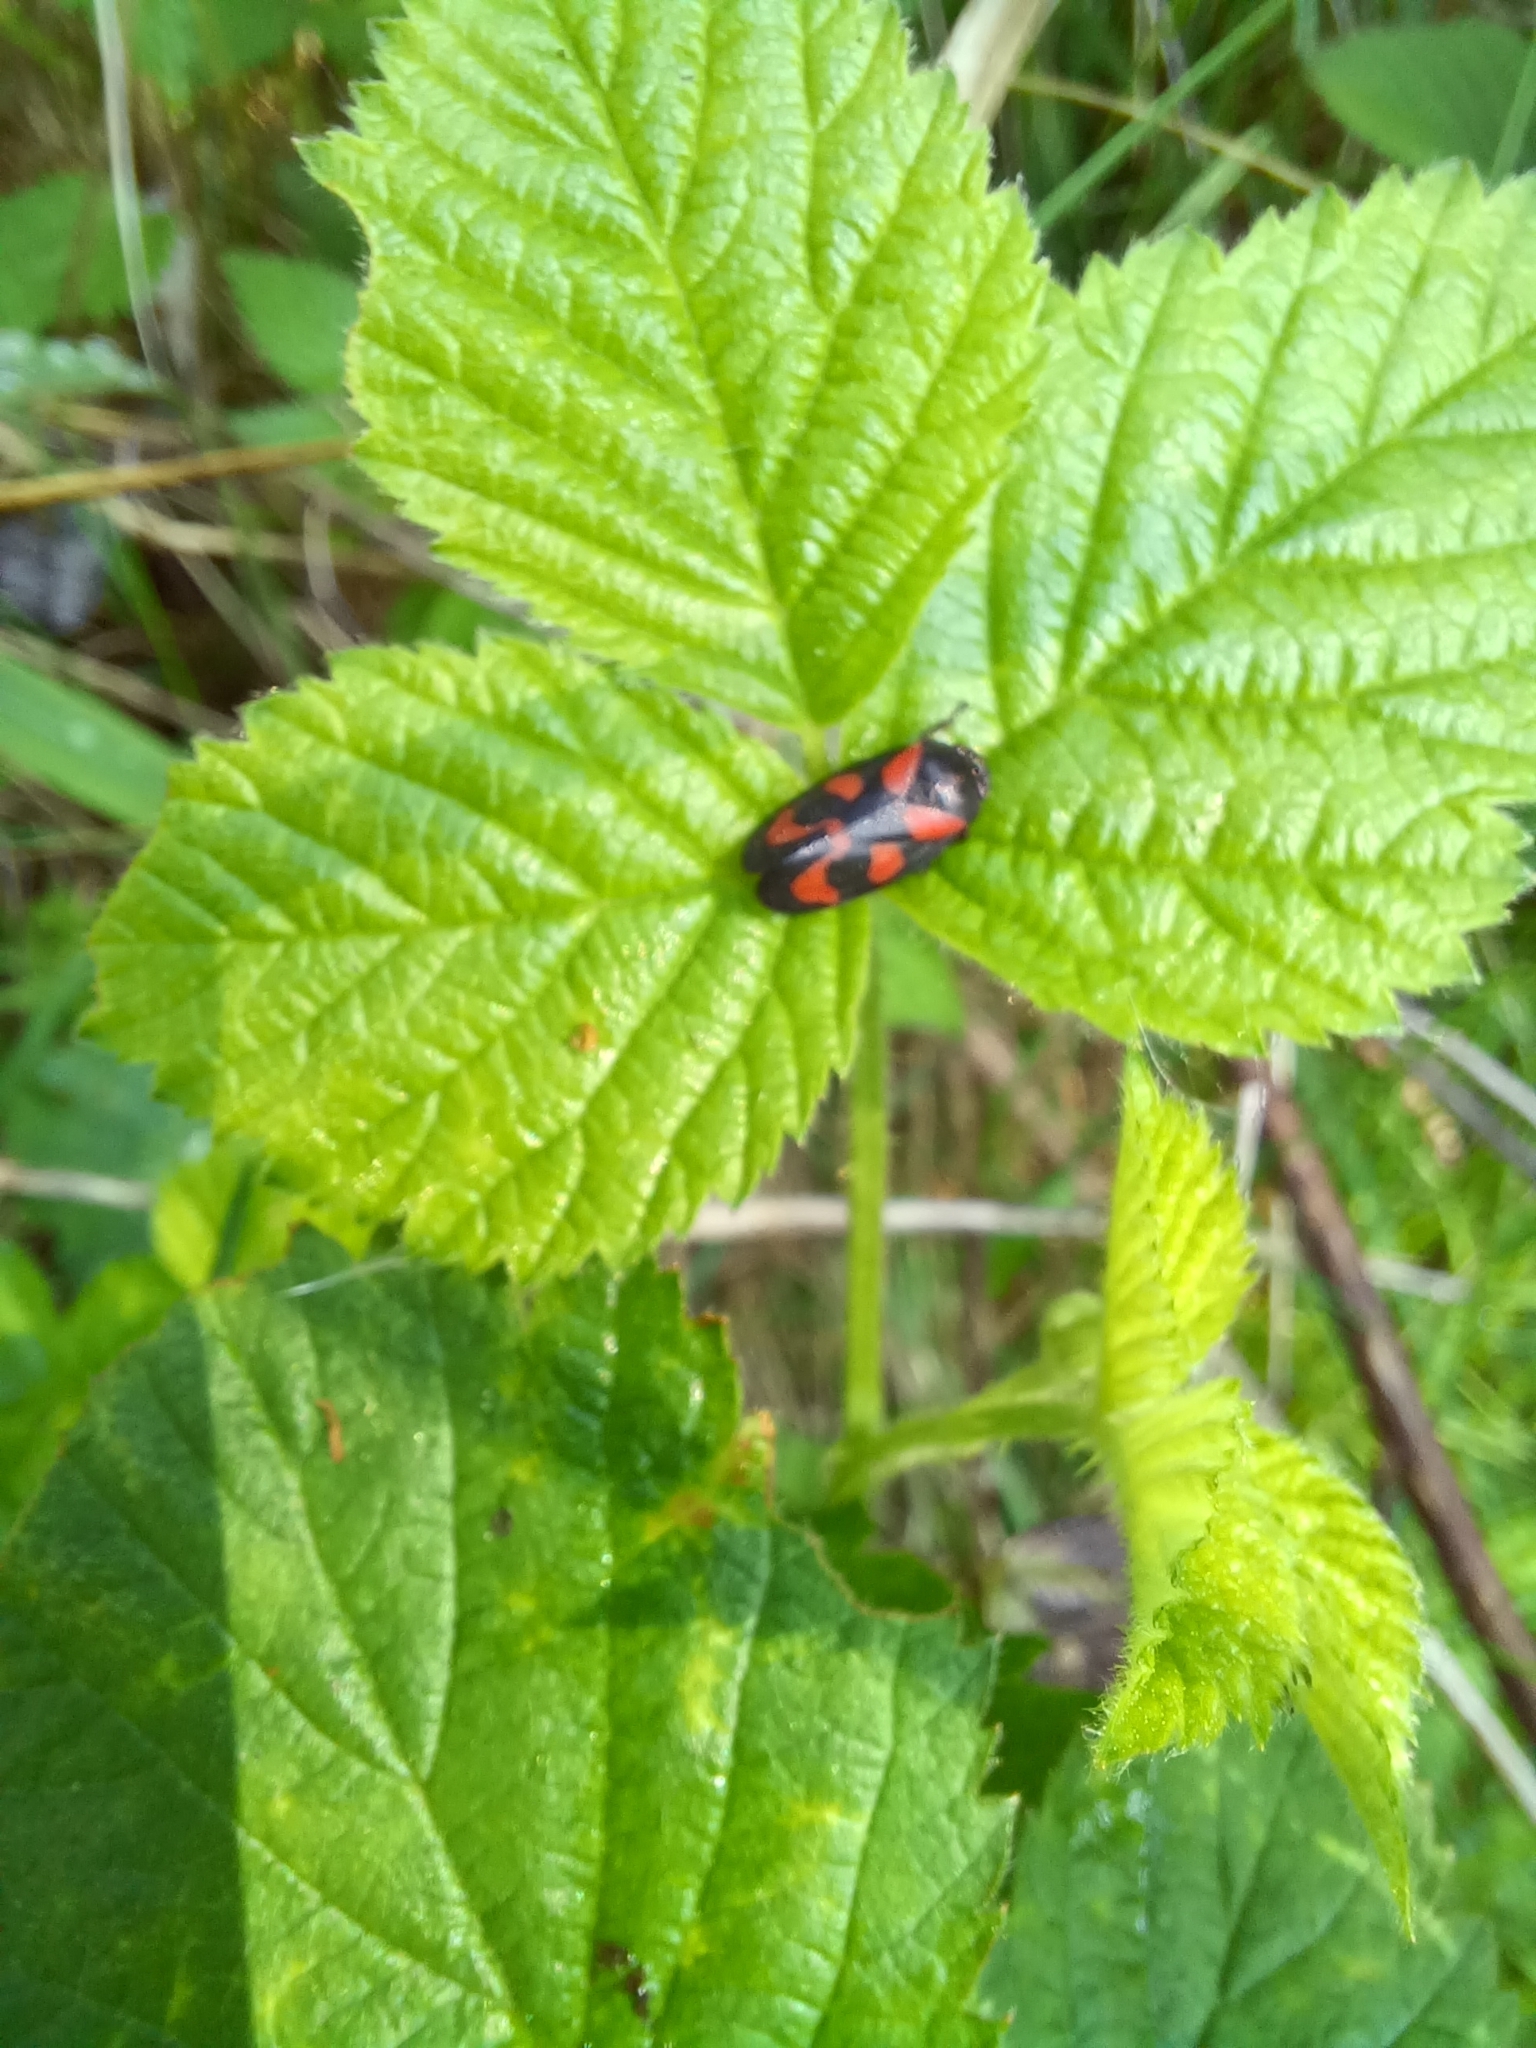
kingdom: Animalia
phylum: Arthropoda
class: Insecta
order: Hemiptera
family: Cercopidae
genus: Cercopis
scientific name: Cercopis vulnerata
